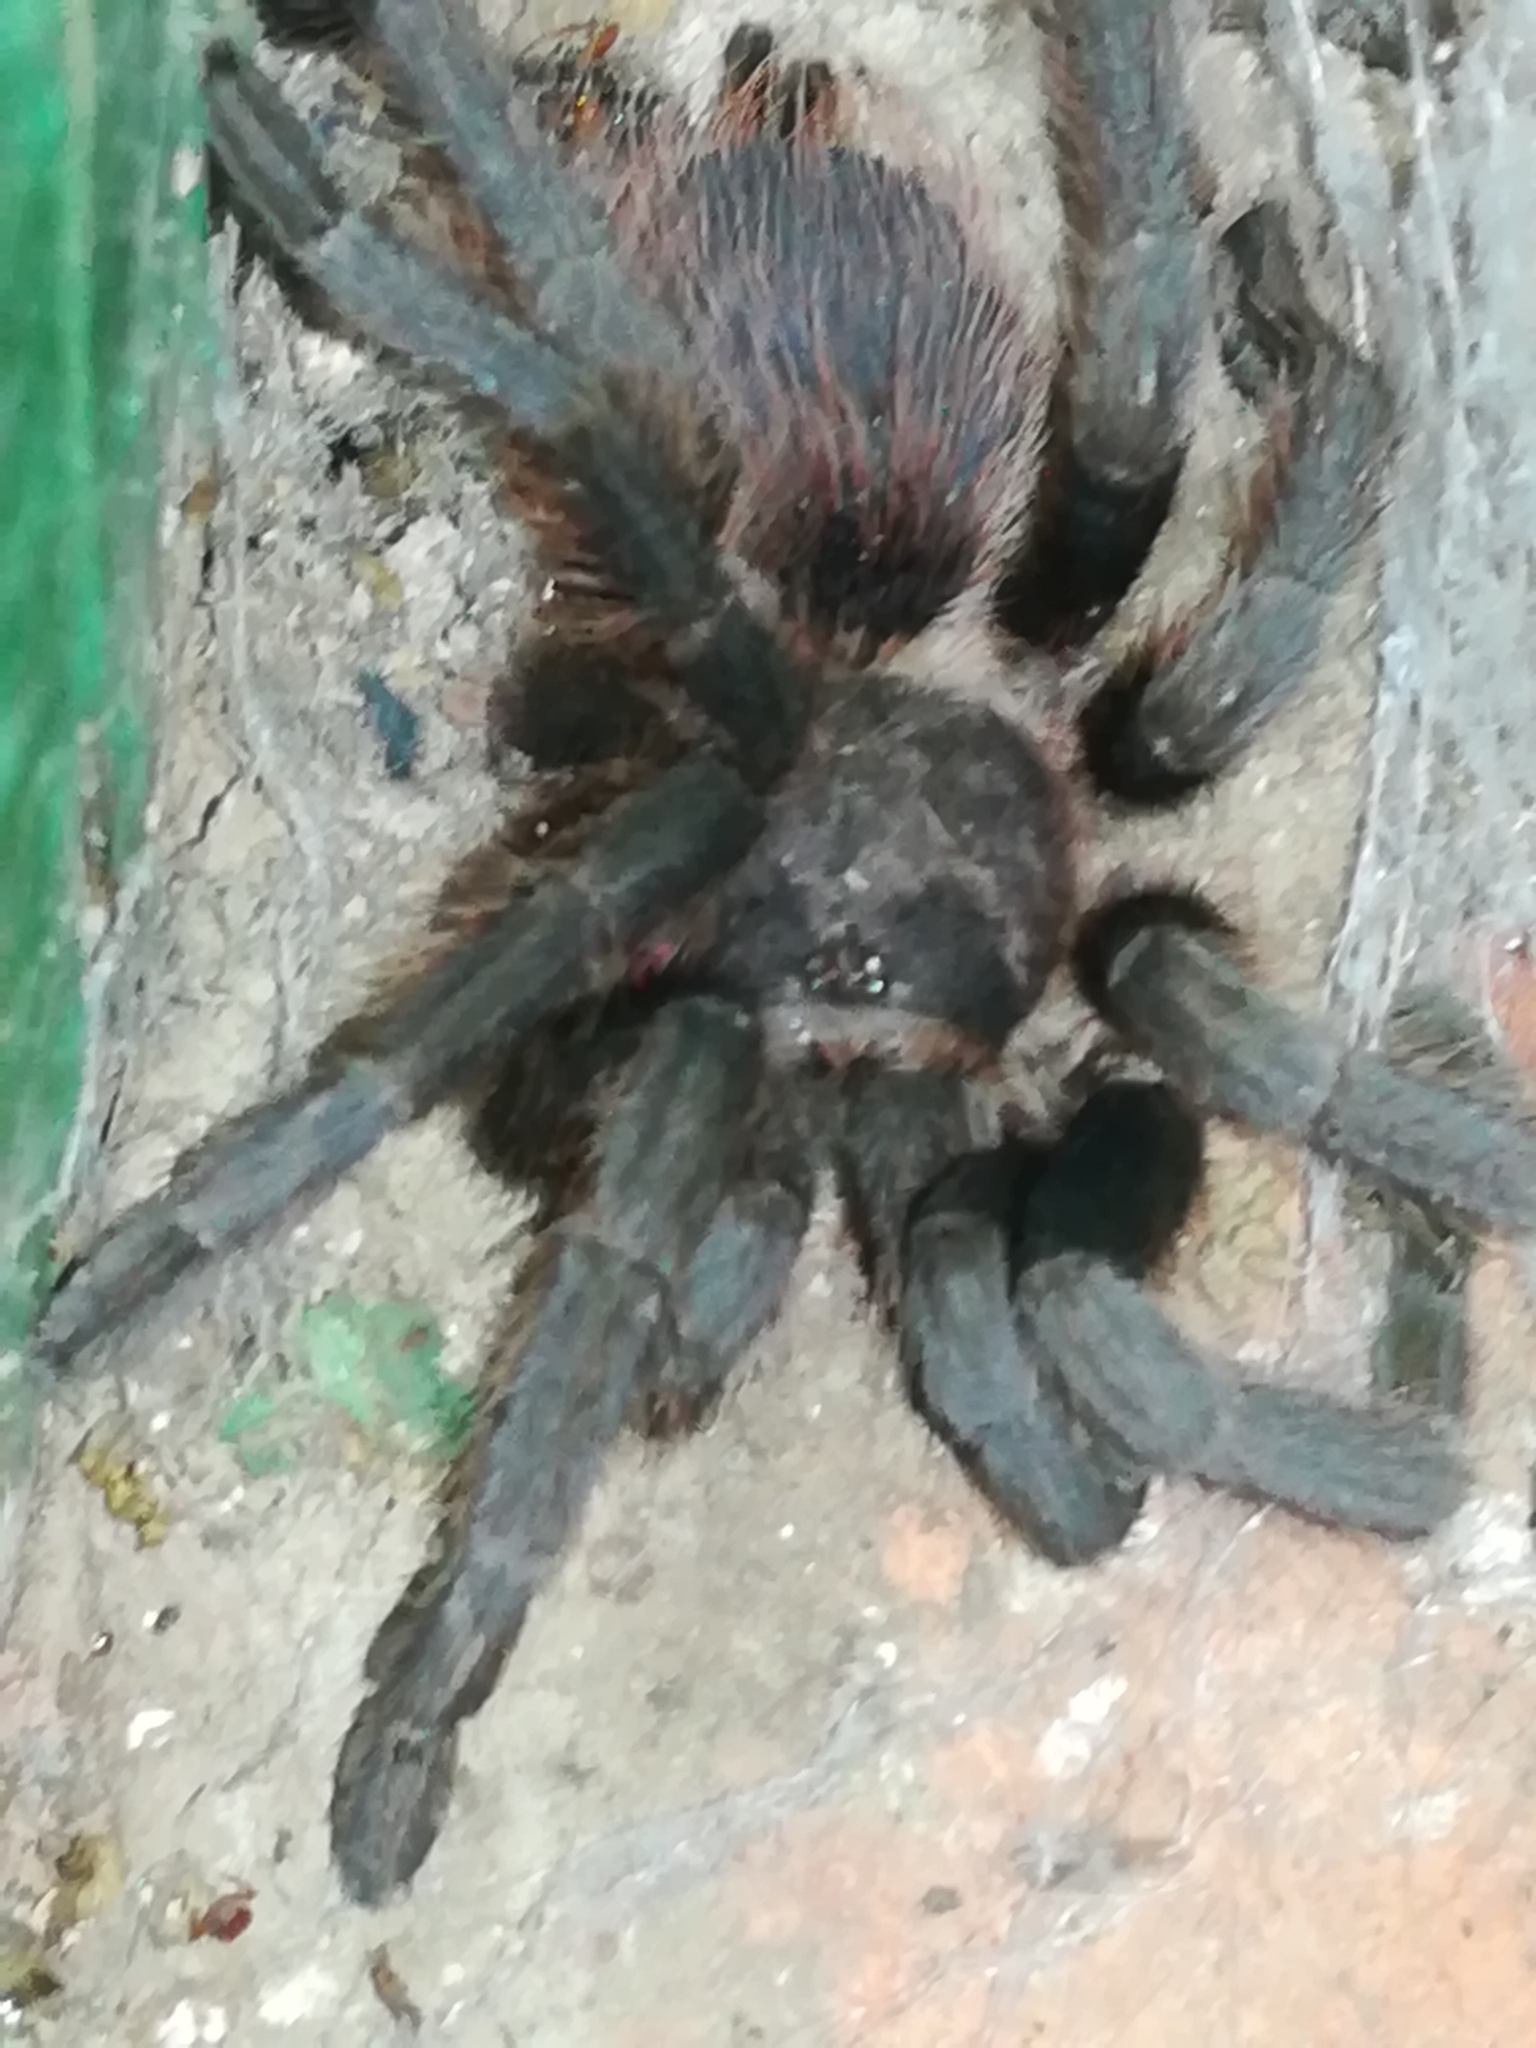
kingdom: Animalia
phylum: Arthropoda
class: Arachnida
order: Araneae
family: Theraphosidae
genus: Aphonopelma
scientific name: Aphonopelma anax
